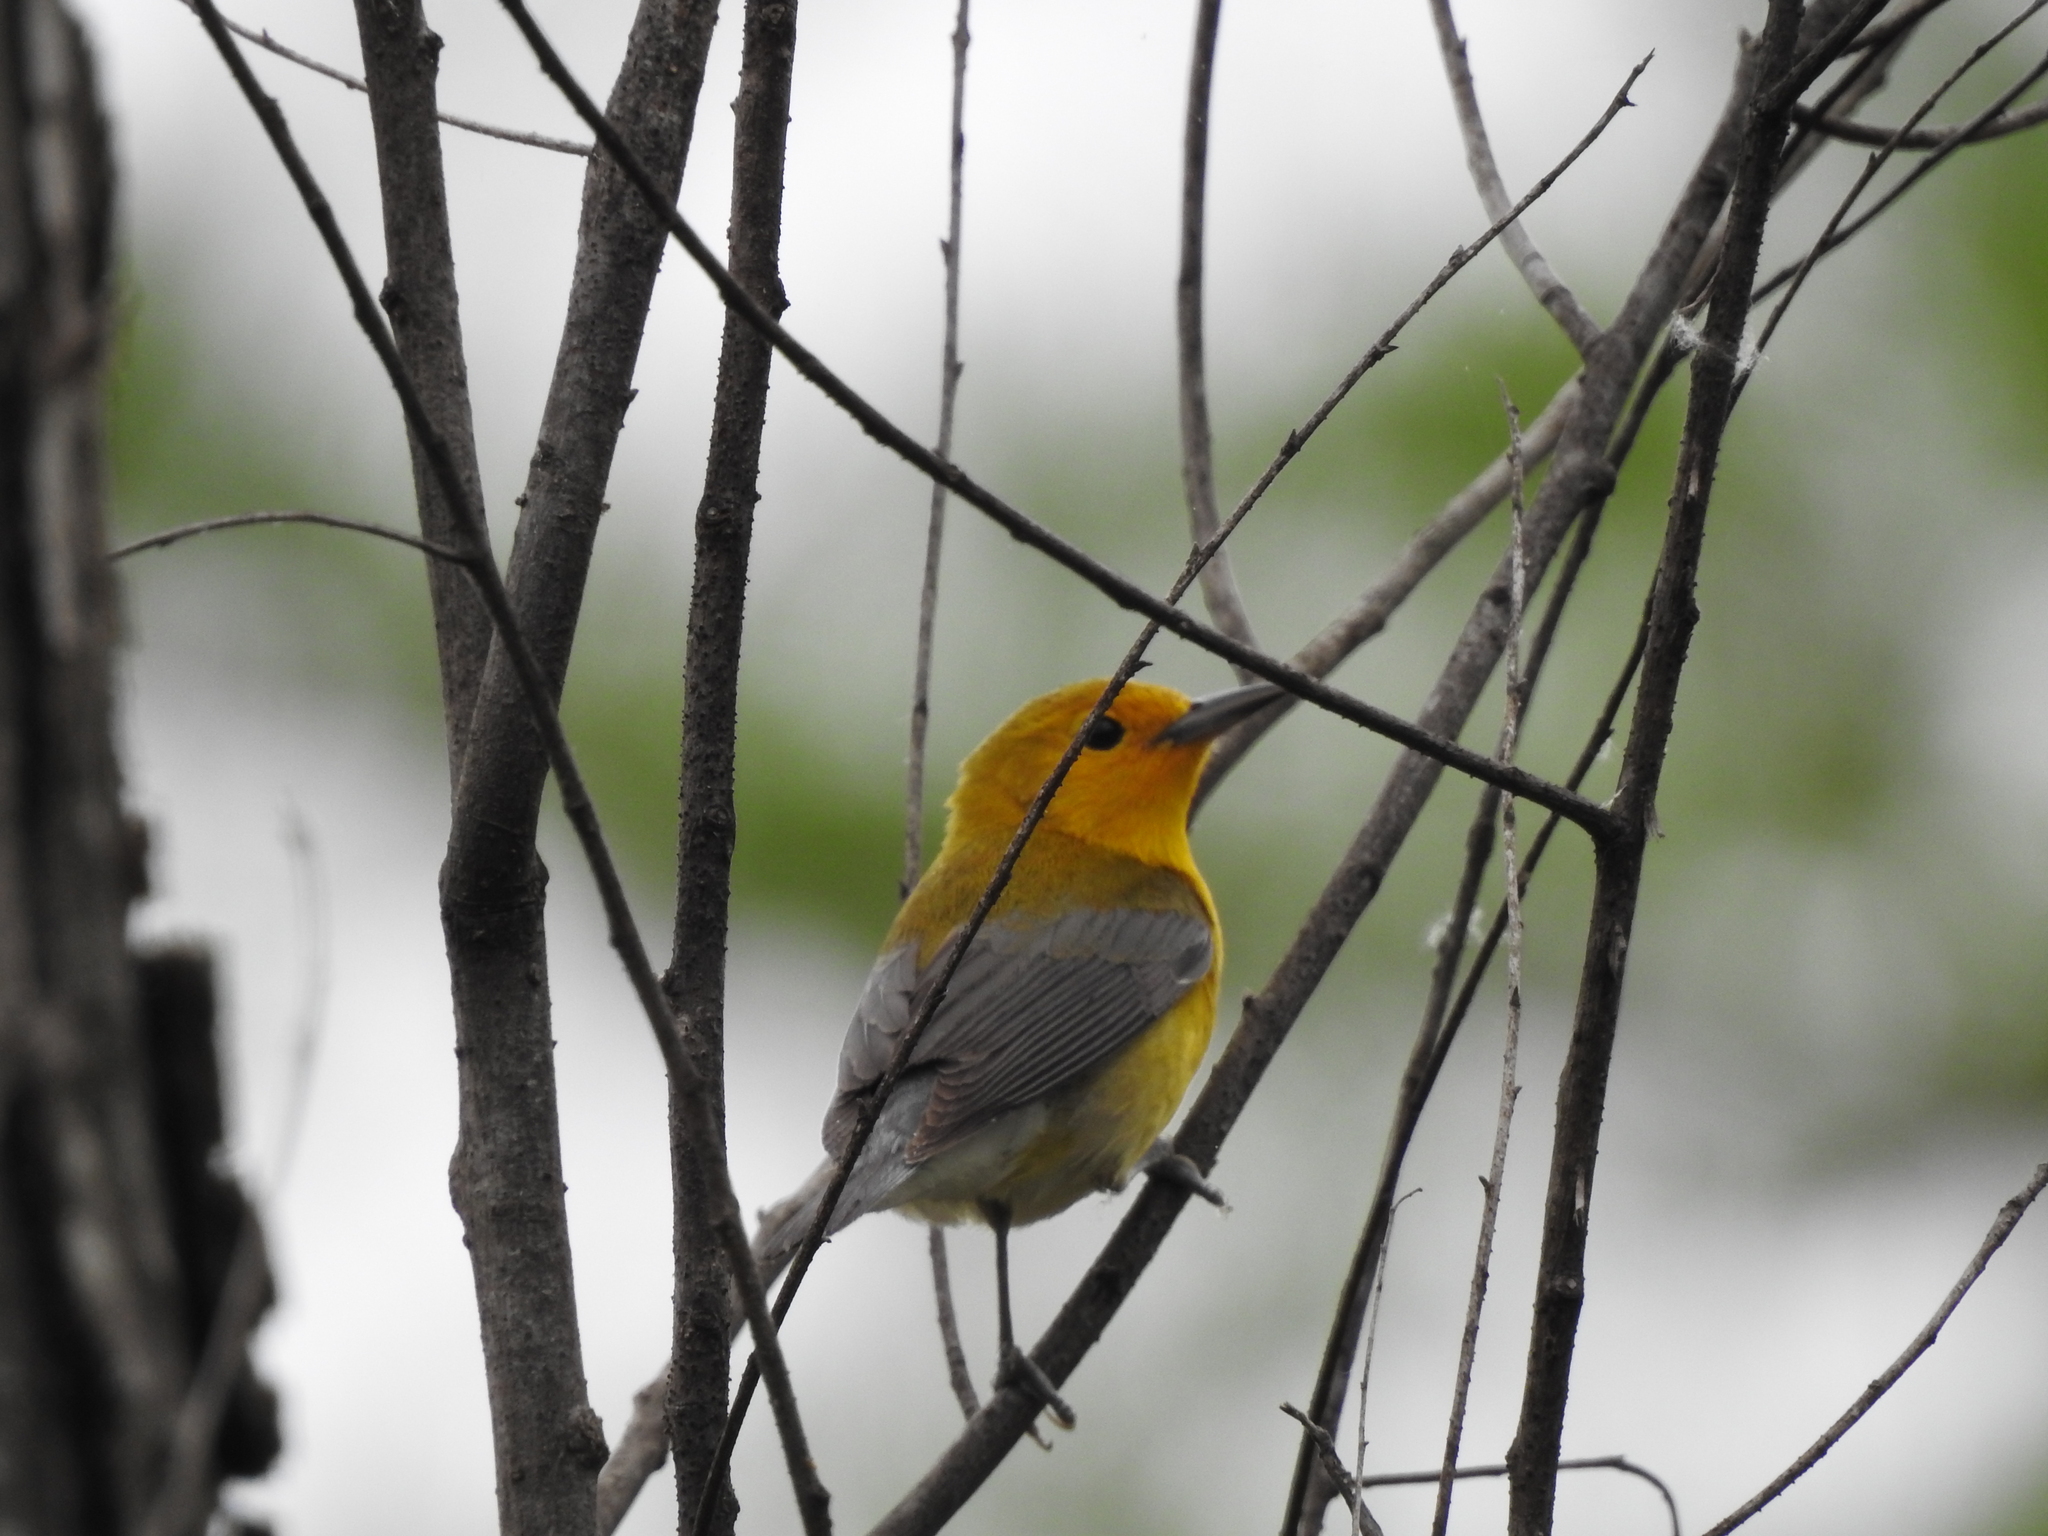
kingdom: Animalia
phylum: Chordata
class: Aves
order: Passeriformes
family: Parulidae
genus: Protonotaria
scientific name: Protonotaria citrea
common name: Prothonotary warbler
